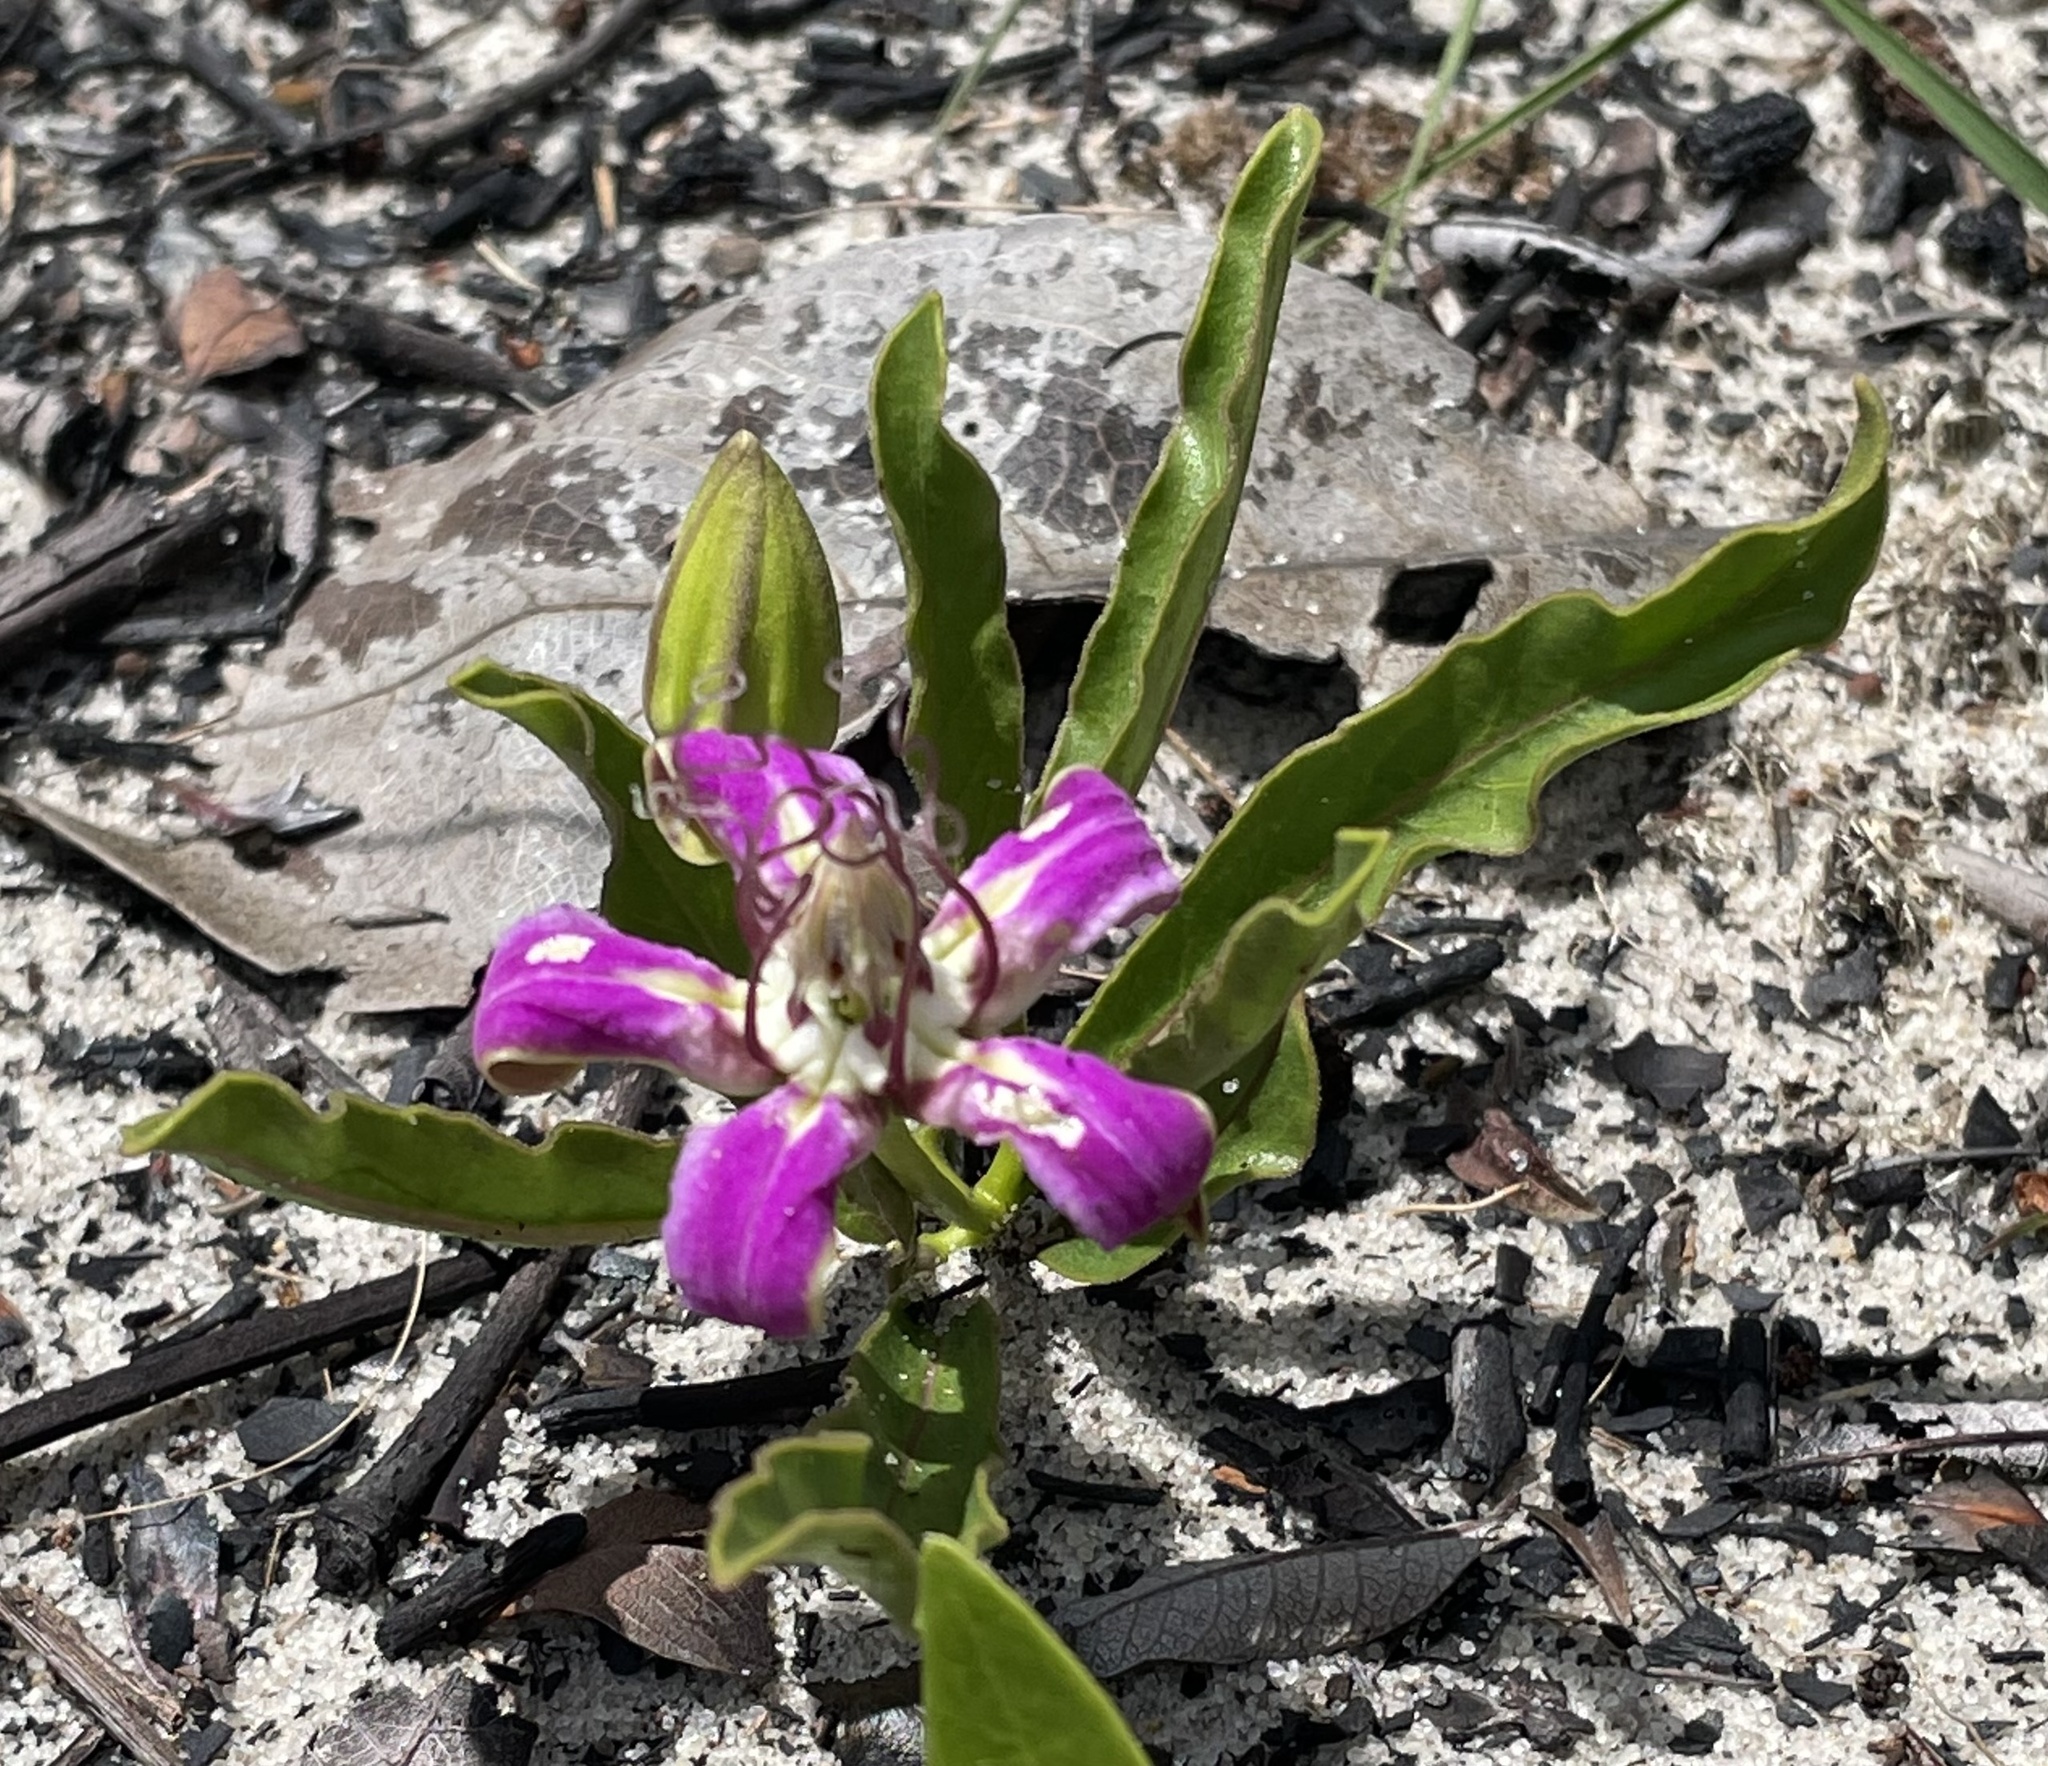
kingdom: Plantae
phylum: Tracheophyta
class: Magnoliopsida
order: Gentianales
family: Apocynaceae
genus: Raphionacme
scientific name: Raphionacme michelii
